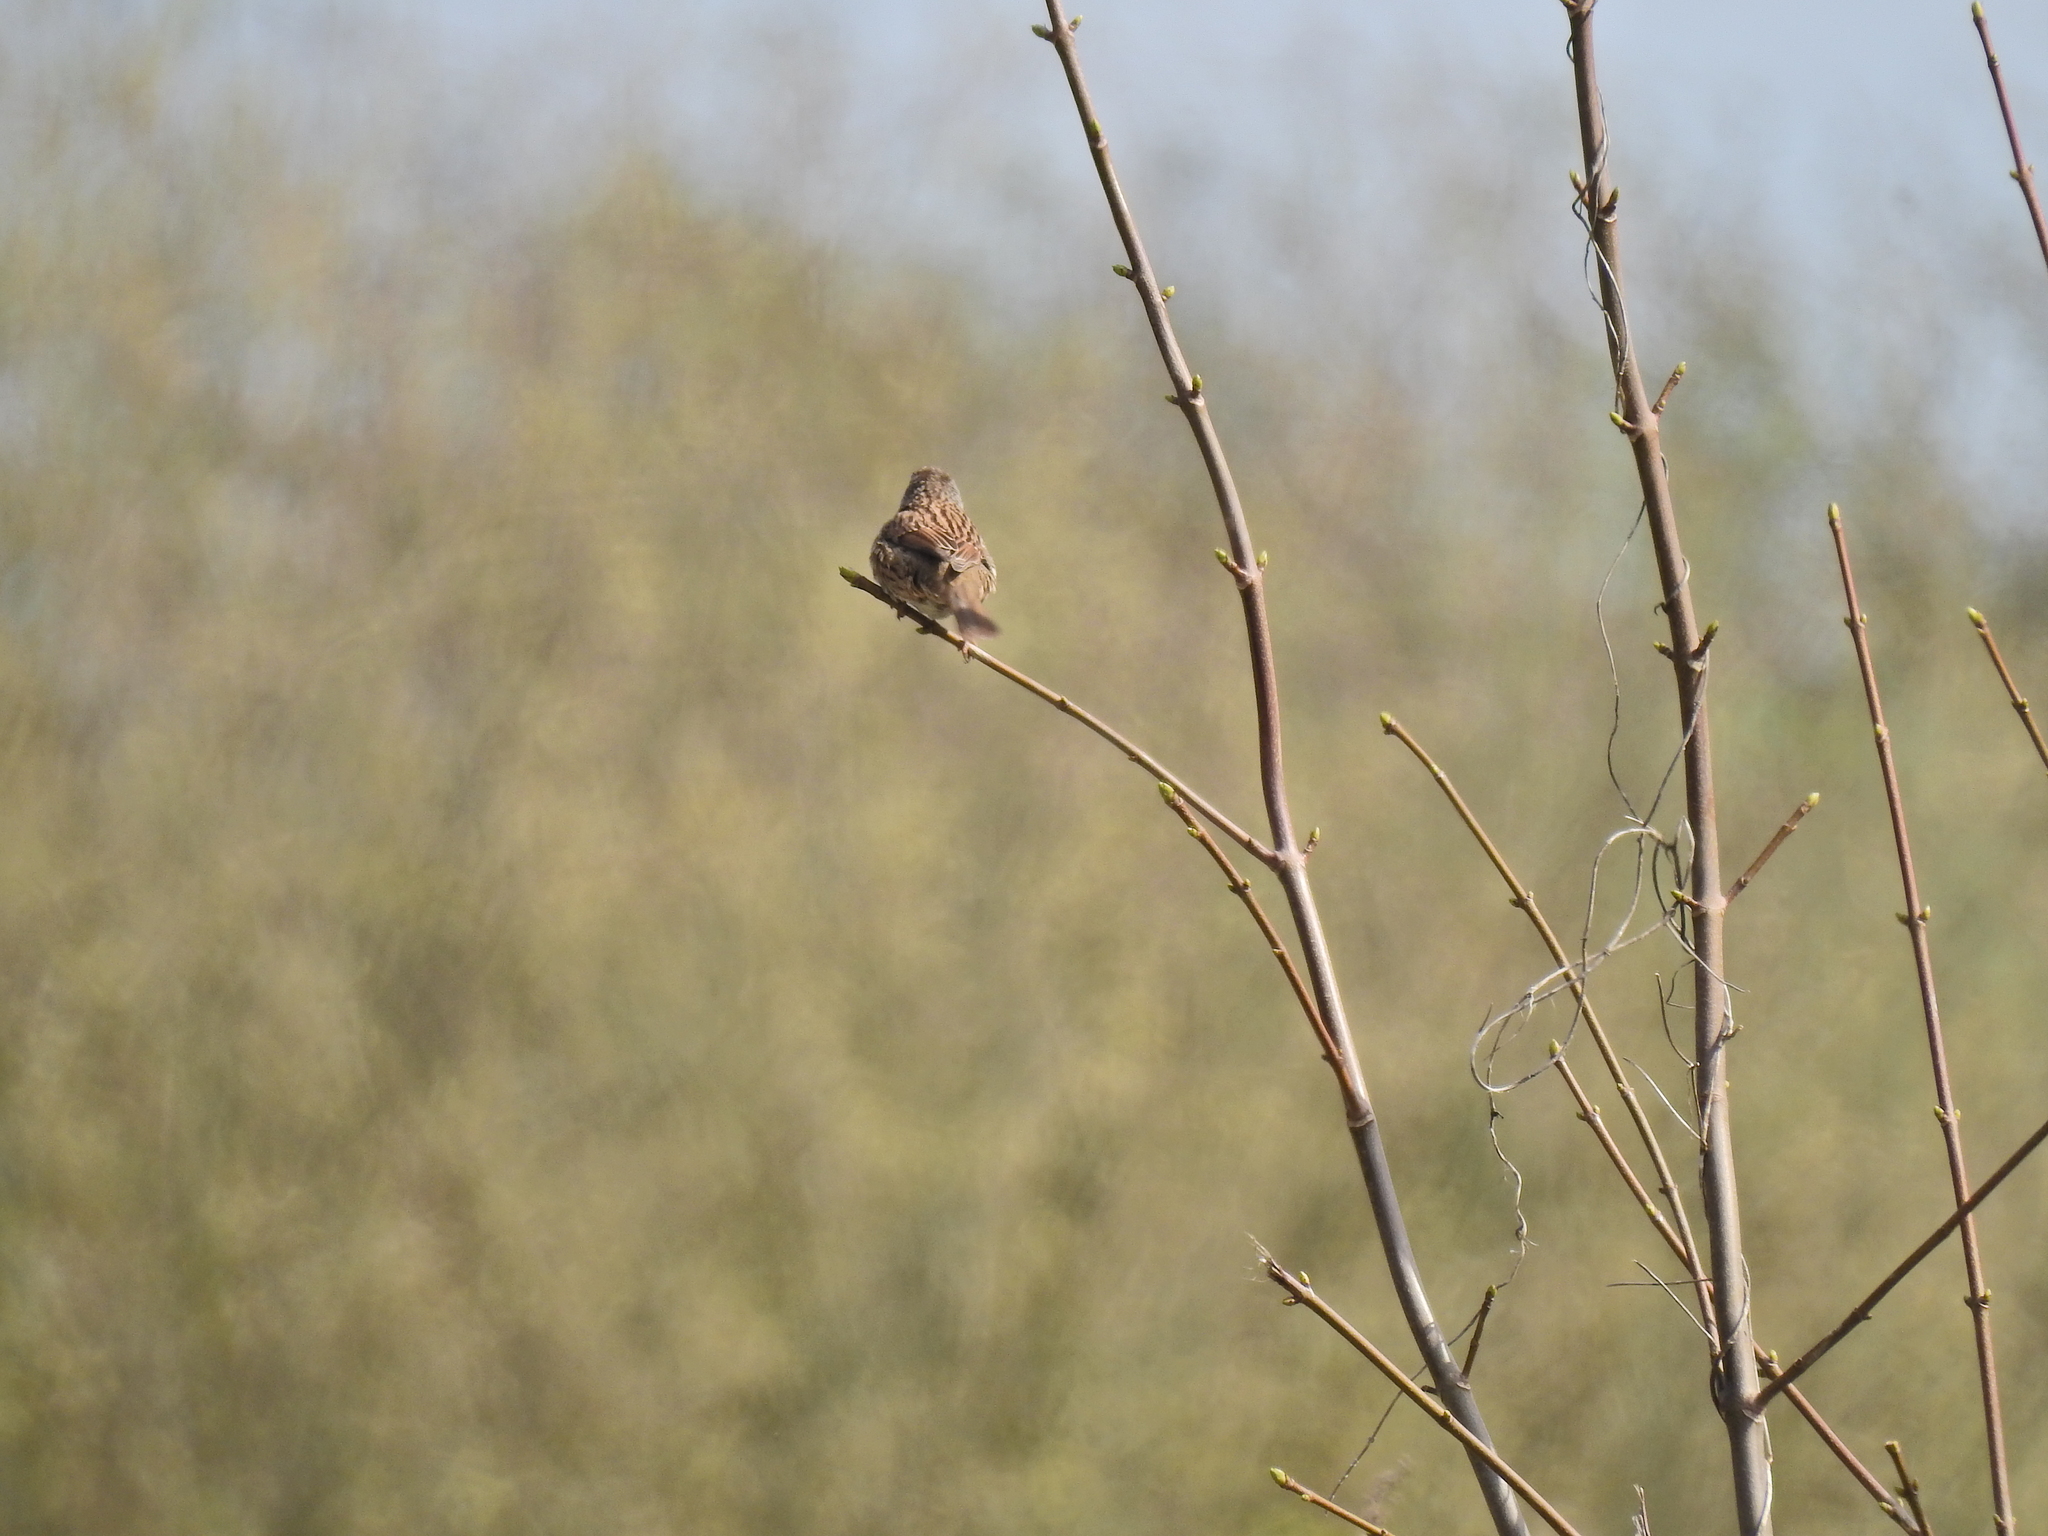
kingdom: Animalia
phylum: Chordata
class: Aves
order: Passeriformes
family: Prunellidae
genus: Prunella
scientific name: Prunella modularis
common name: Dunnock
